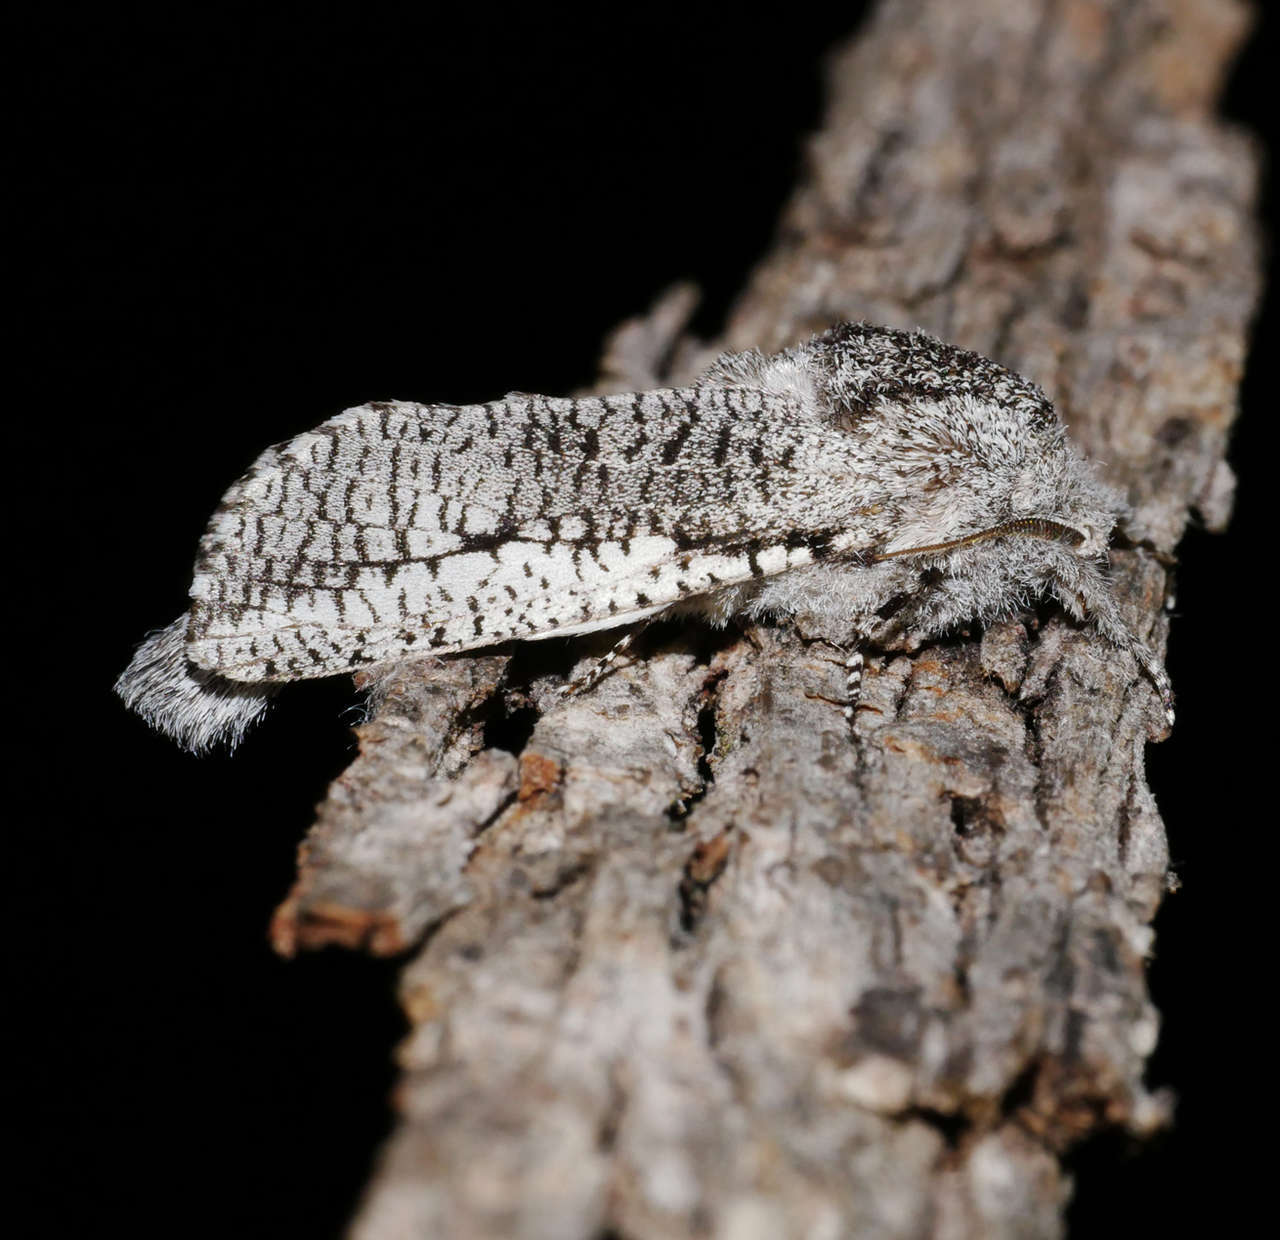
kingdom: Animalia
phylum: Arthropoda
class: Insecta
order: Lepidoptera
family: Cossidae
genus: Endoxyla
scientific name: Endoxyla secta
